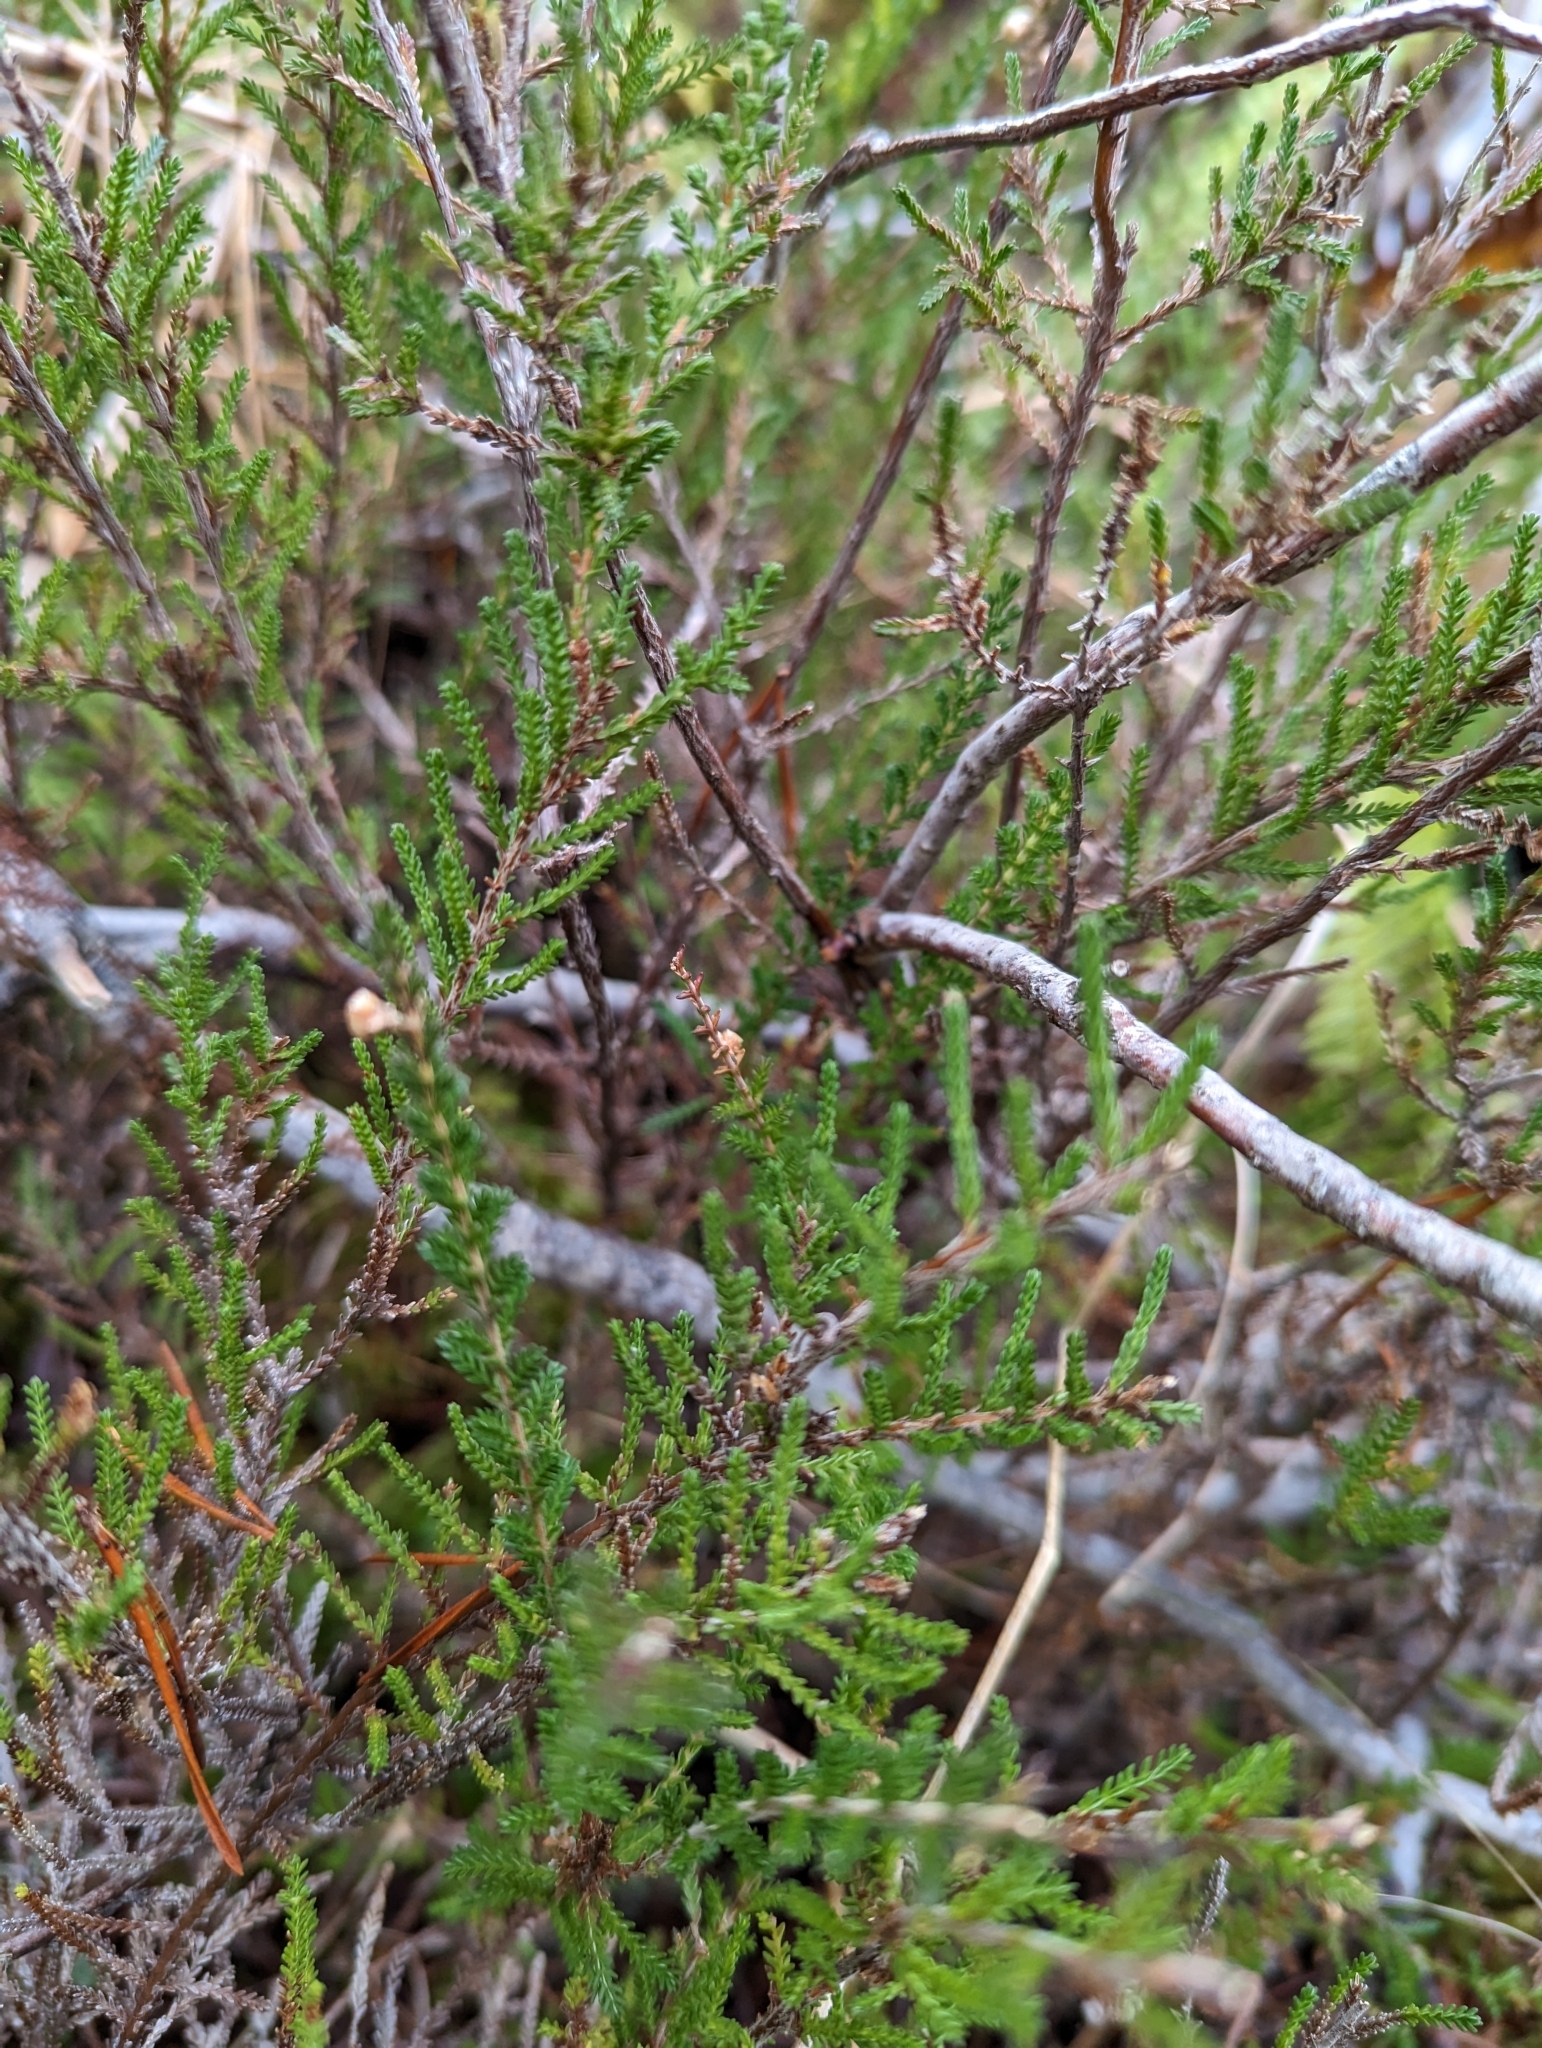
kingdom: Plantae
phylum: Tracheophyta
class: Magnoliopsida
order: Ericales
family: Ericaceae
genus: Calluna
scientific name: Calluna vulgaris
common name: Heather
